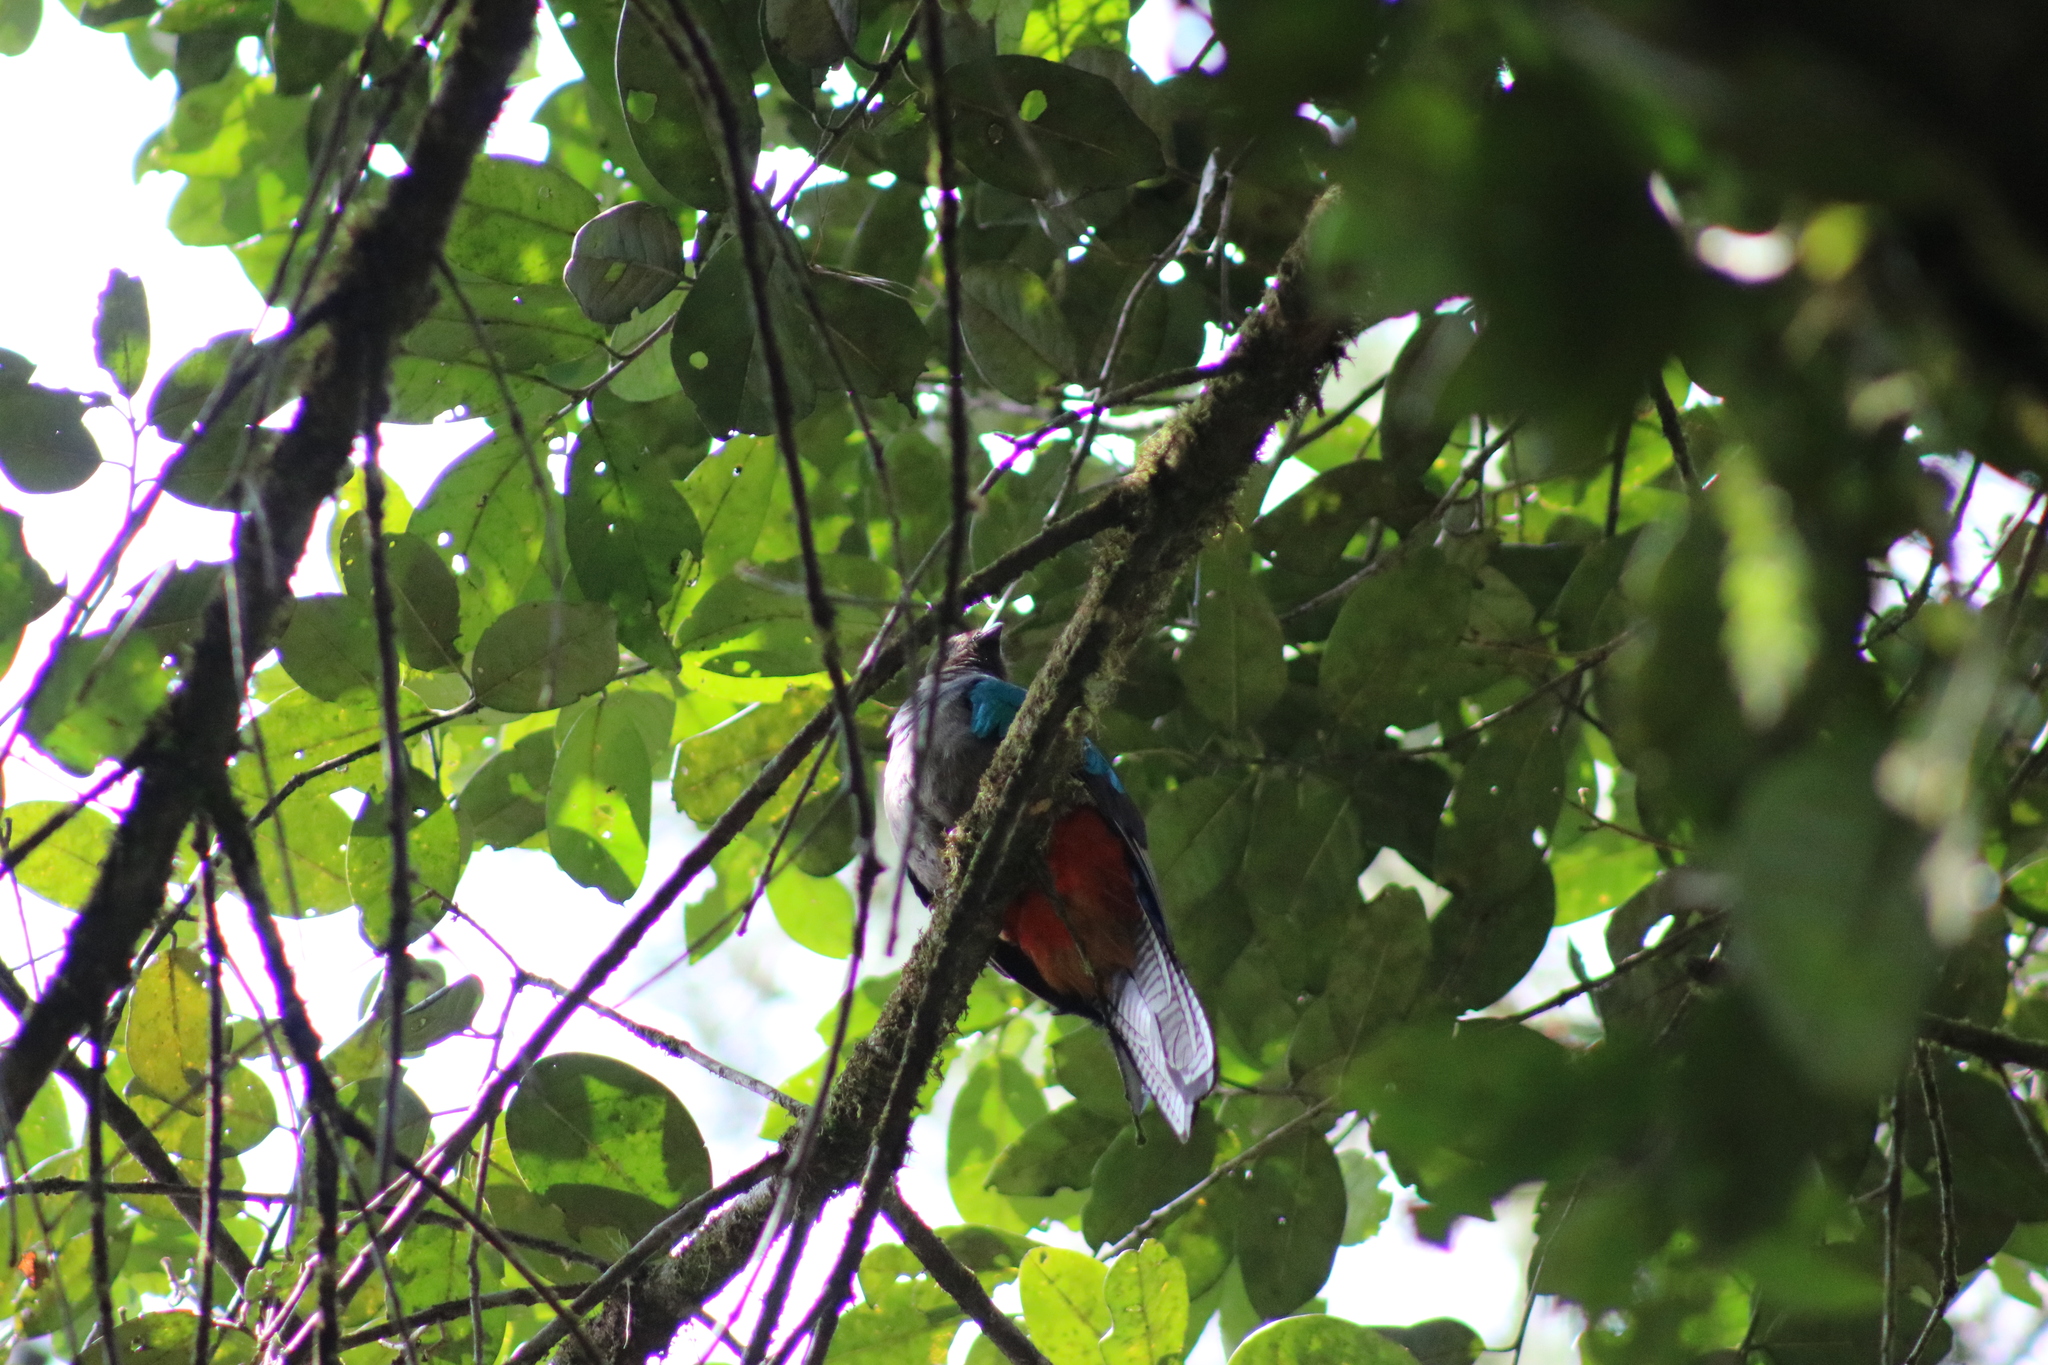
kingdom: Animalia
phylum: Chordata
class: Aves
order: Trogoniformes
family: Trogonidae
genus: Pharomachrus
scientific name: Pharomachrus mocinno
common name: Resplendent quetzal
